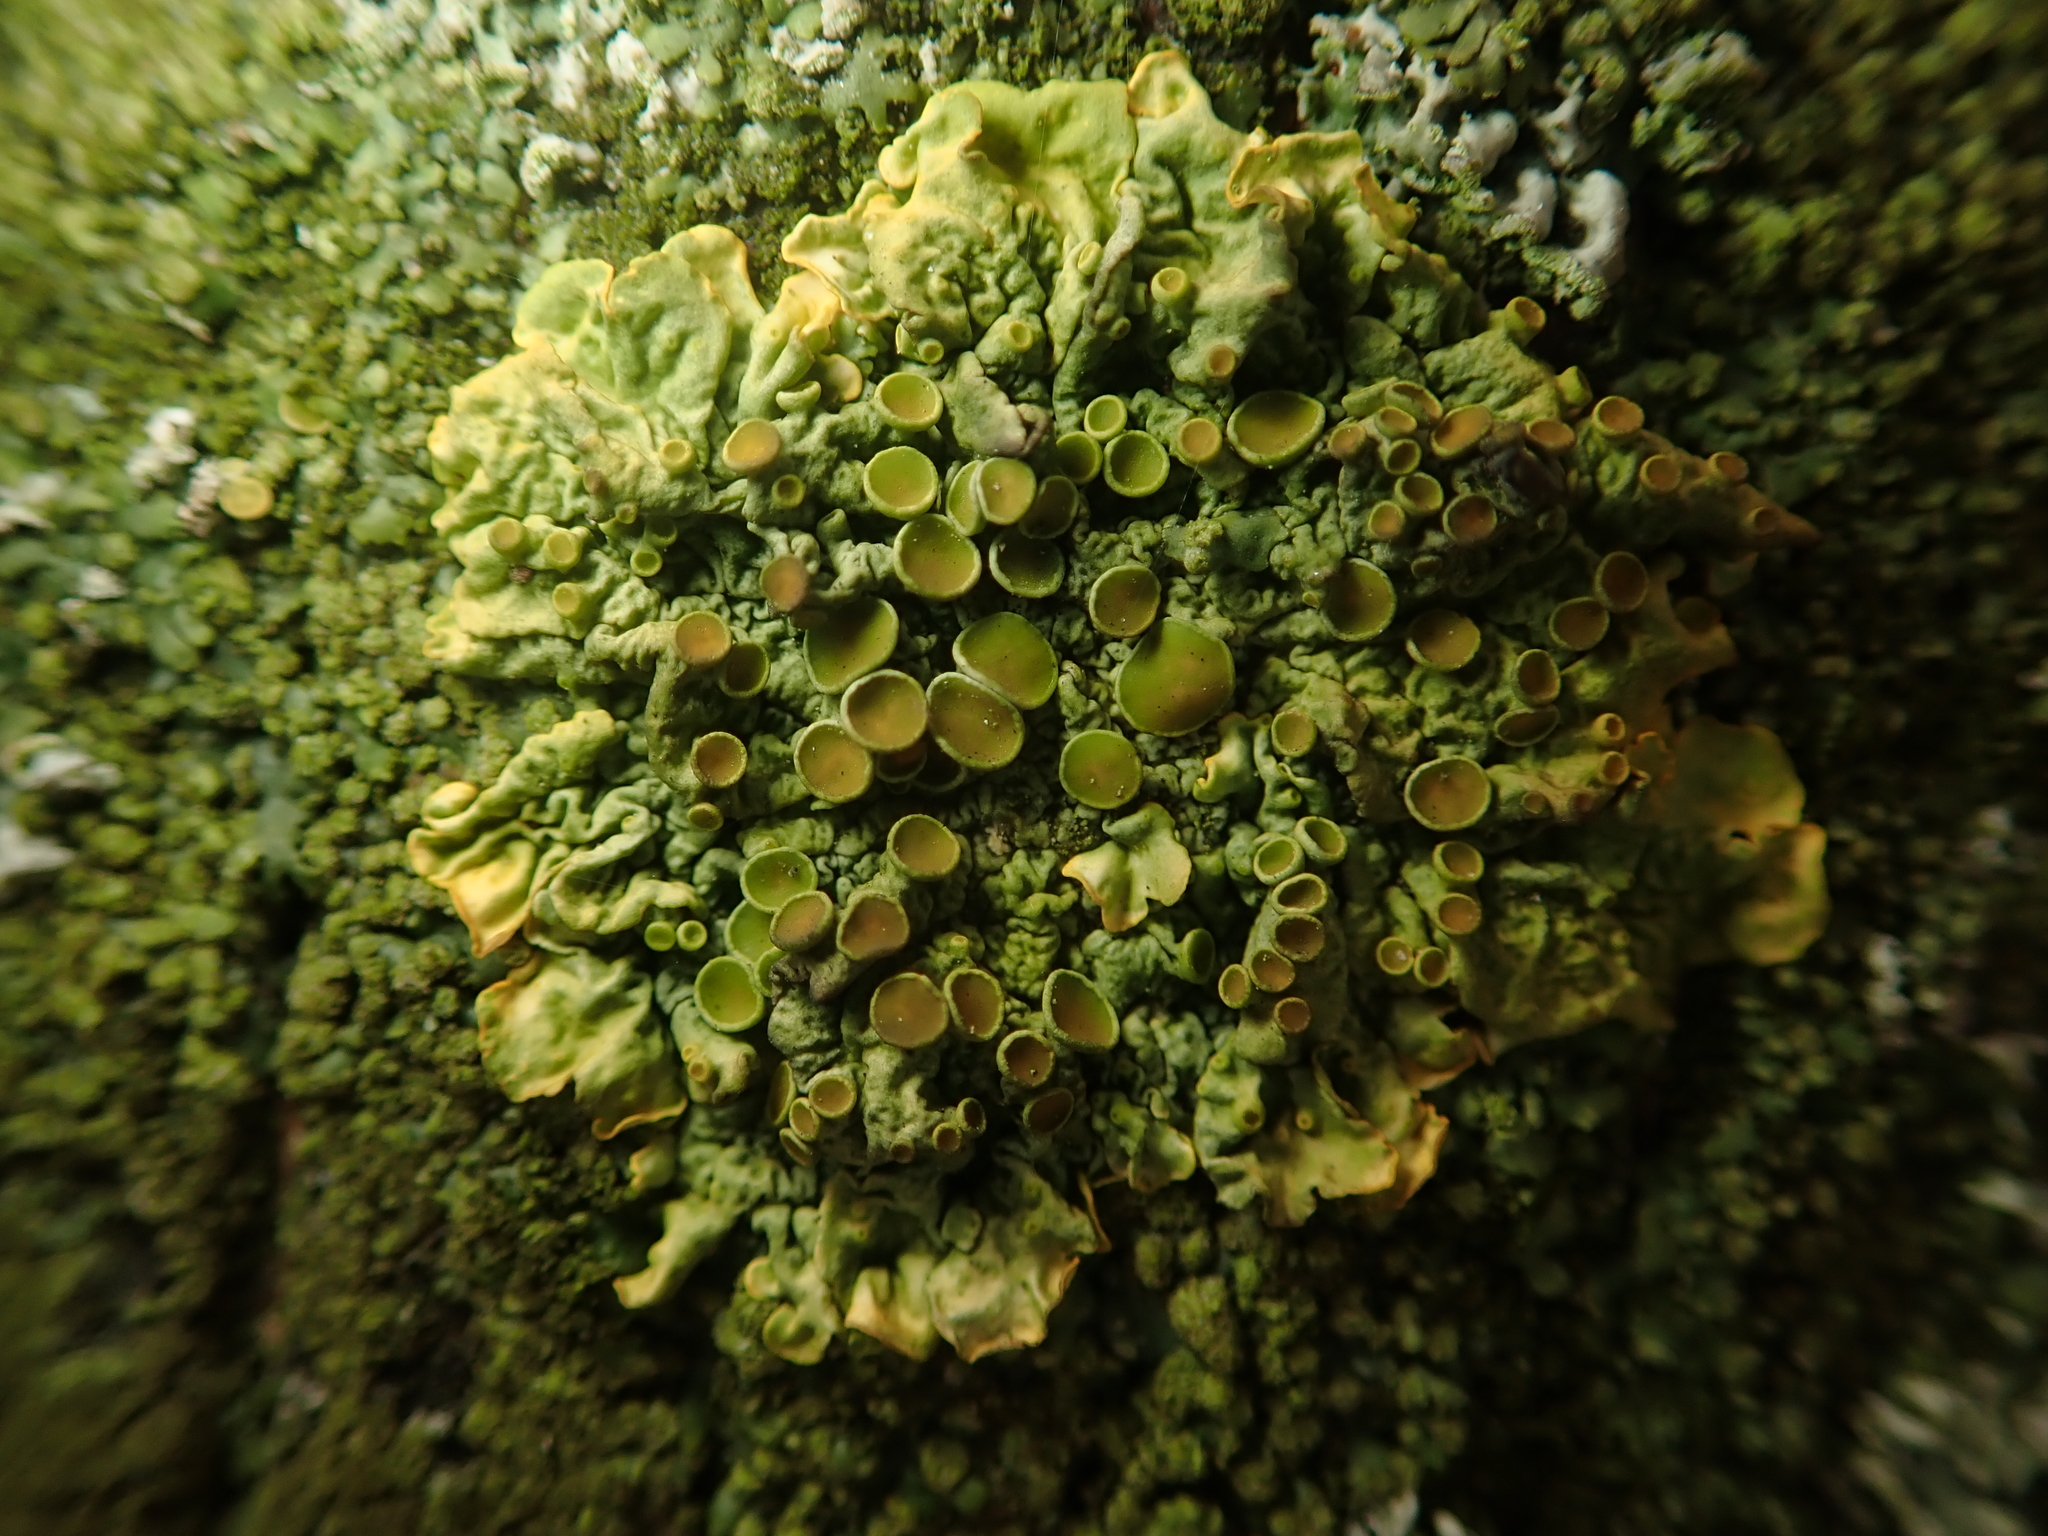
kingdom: Fungi
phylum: Ascomycota
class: Lecanoromycetes
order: Teloschistales
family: Teloschistaceae
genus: Xanthoria
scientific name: Xanthoria parietina
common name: Common orange lichen
